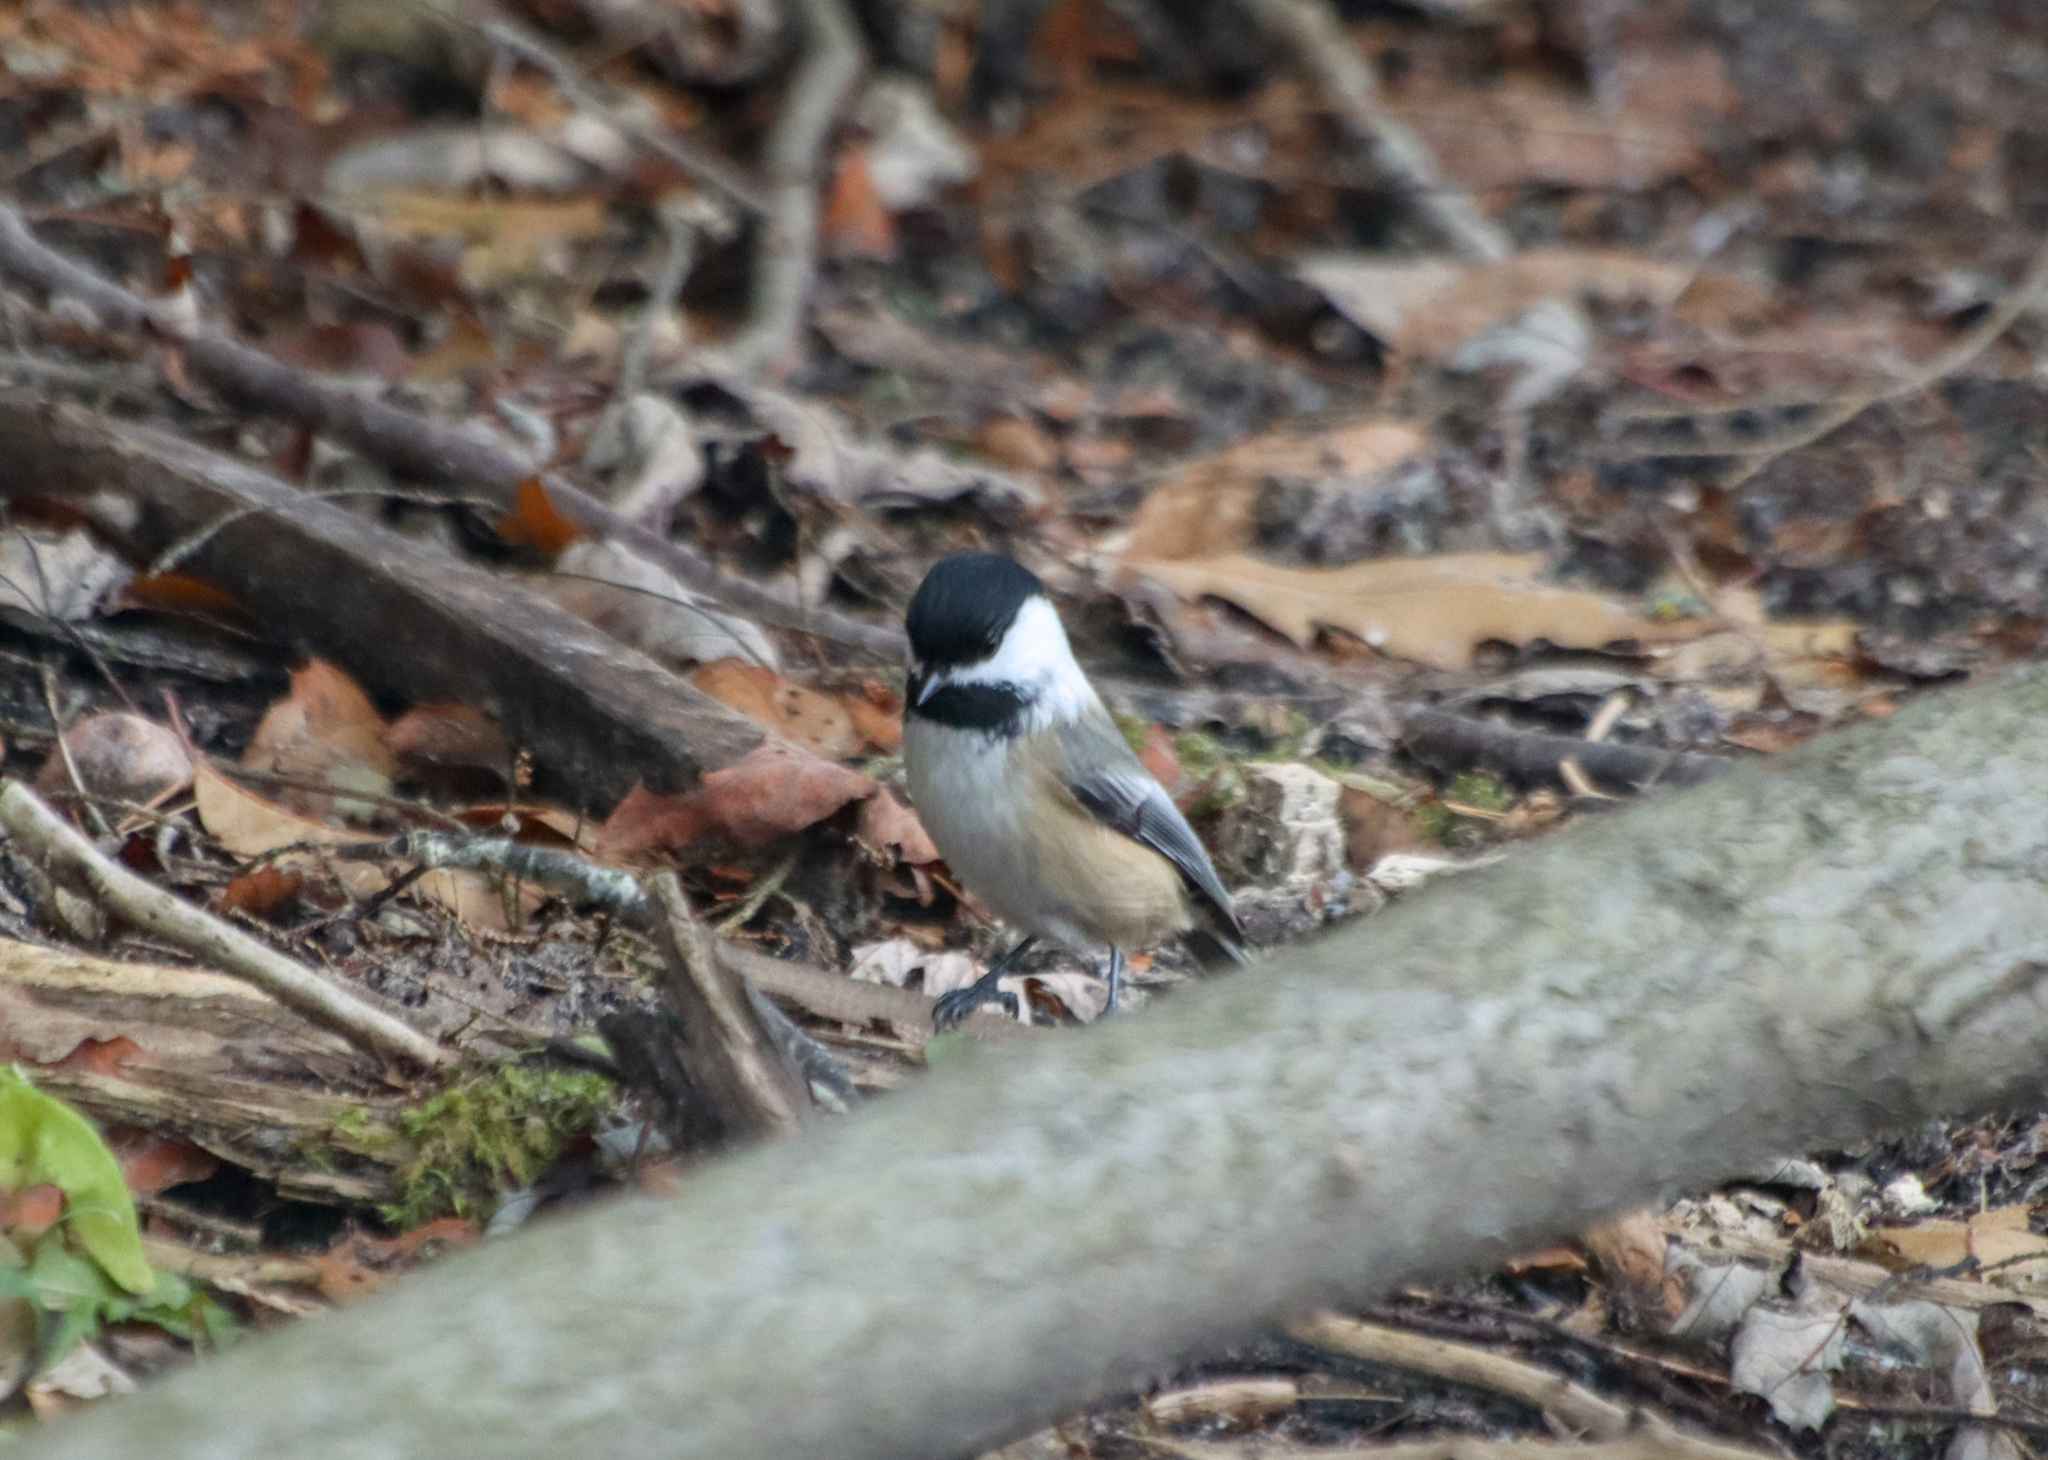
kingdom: Animalia
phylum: Chordata
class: Aves
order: Passeriformes
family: Paridae
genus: Poecile
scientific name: Poecile atricapillus
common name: Black-capped chickadee
